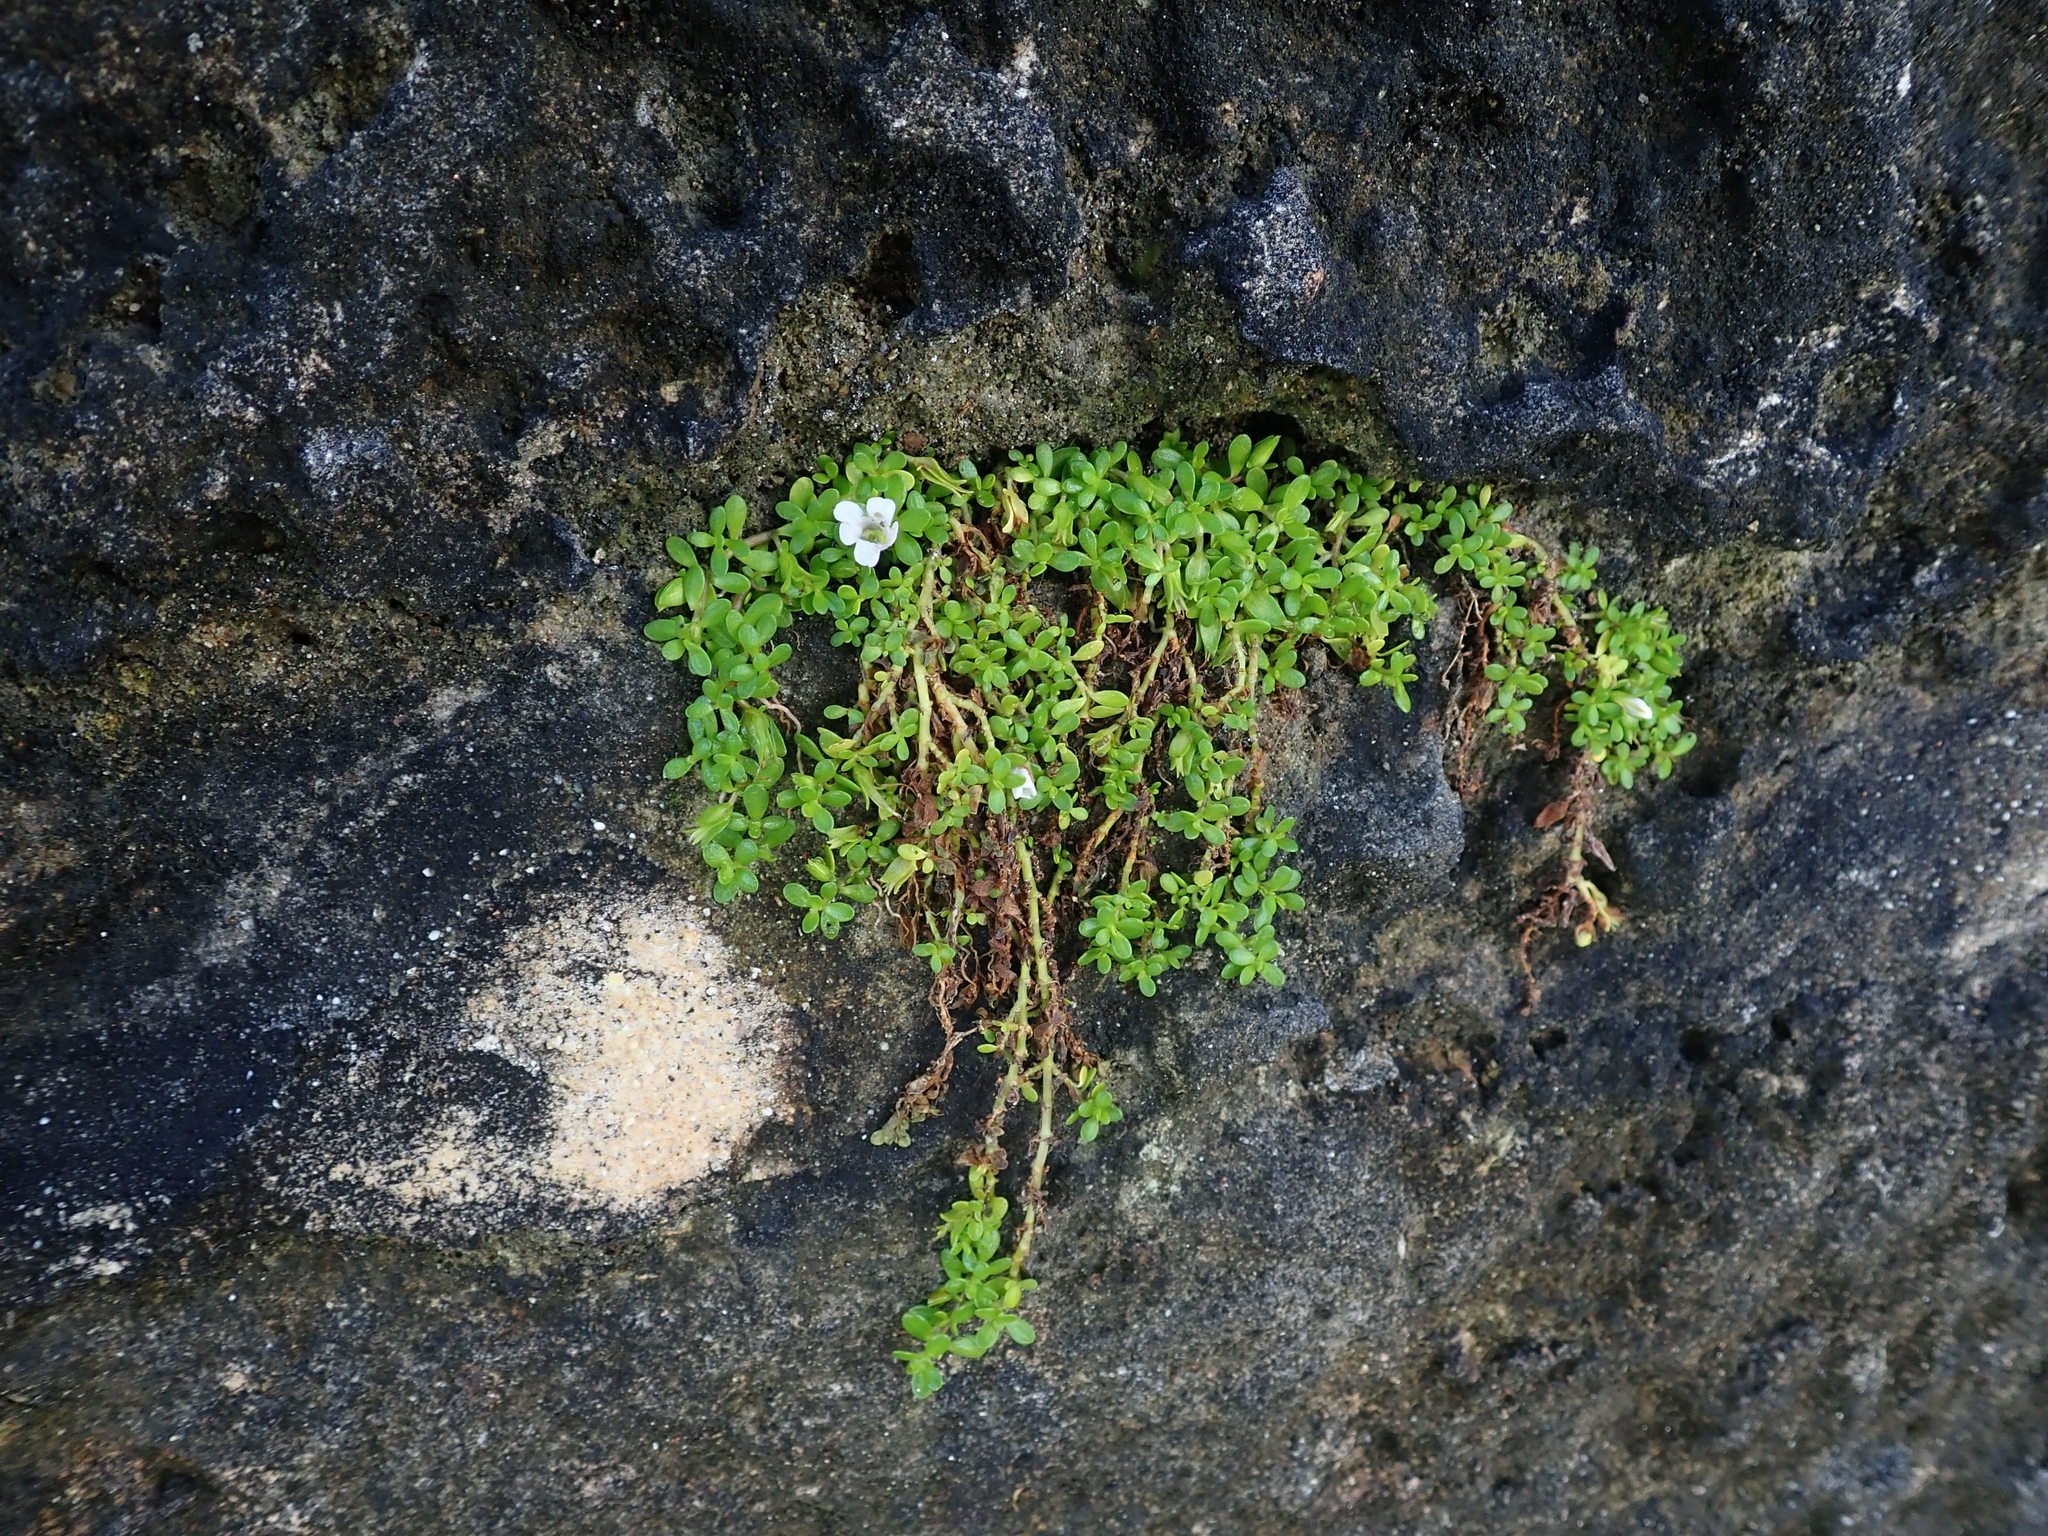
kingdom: Plantae
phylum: Tracheophyta
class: Magnoliopsida
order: Lamiales
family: Plantaginaceae
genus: Bacopa
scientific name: Bacopa monnieri
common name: Indian-pennywort
